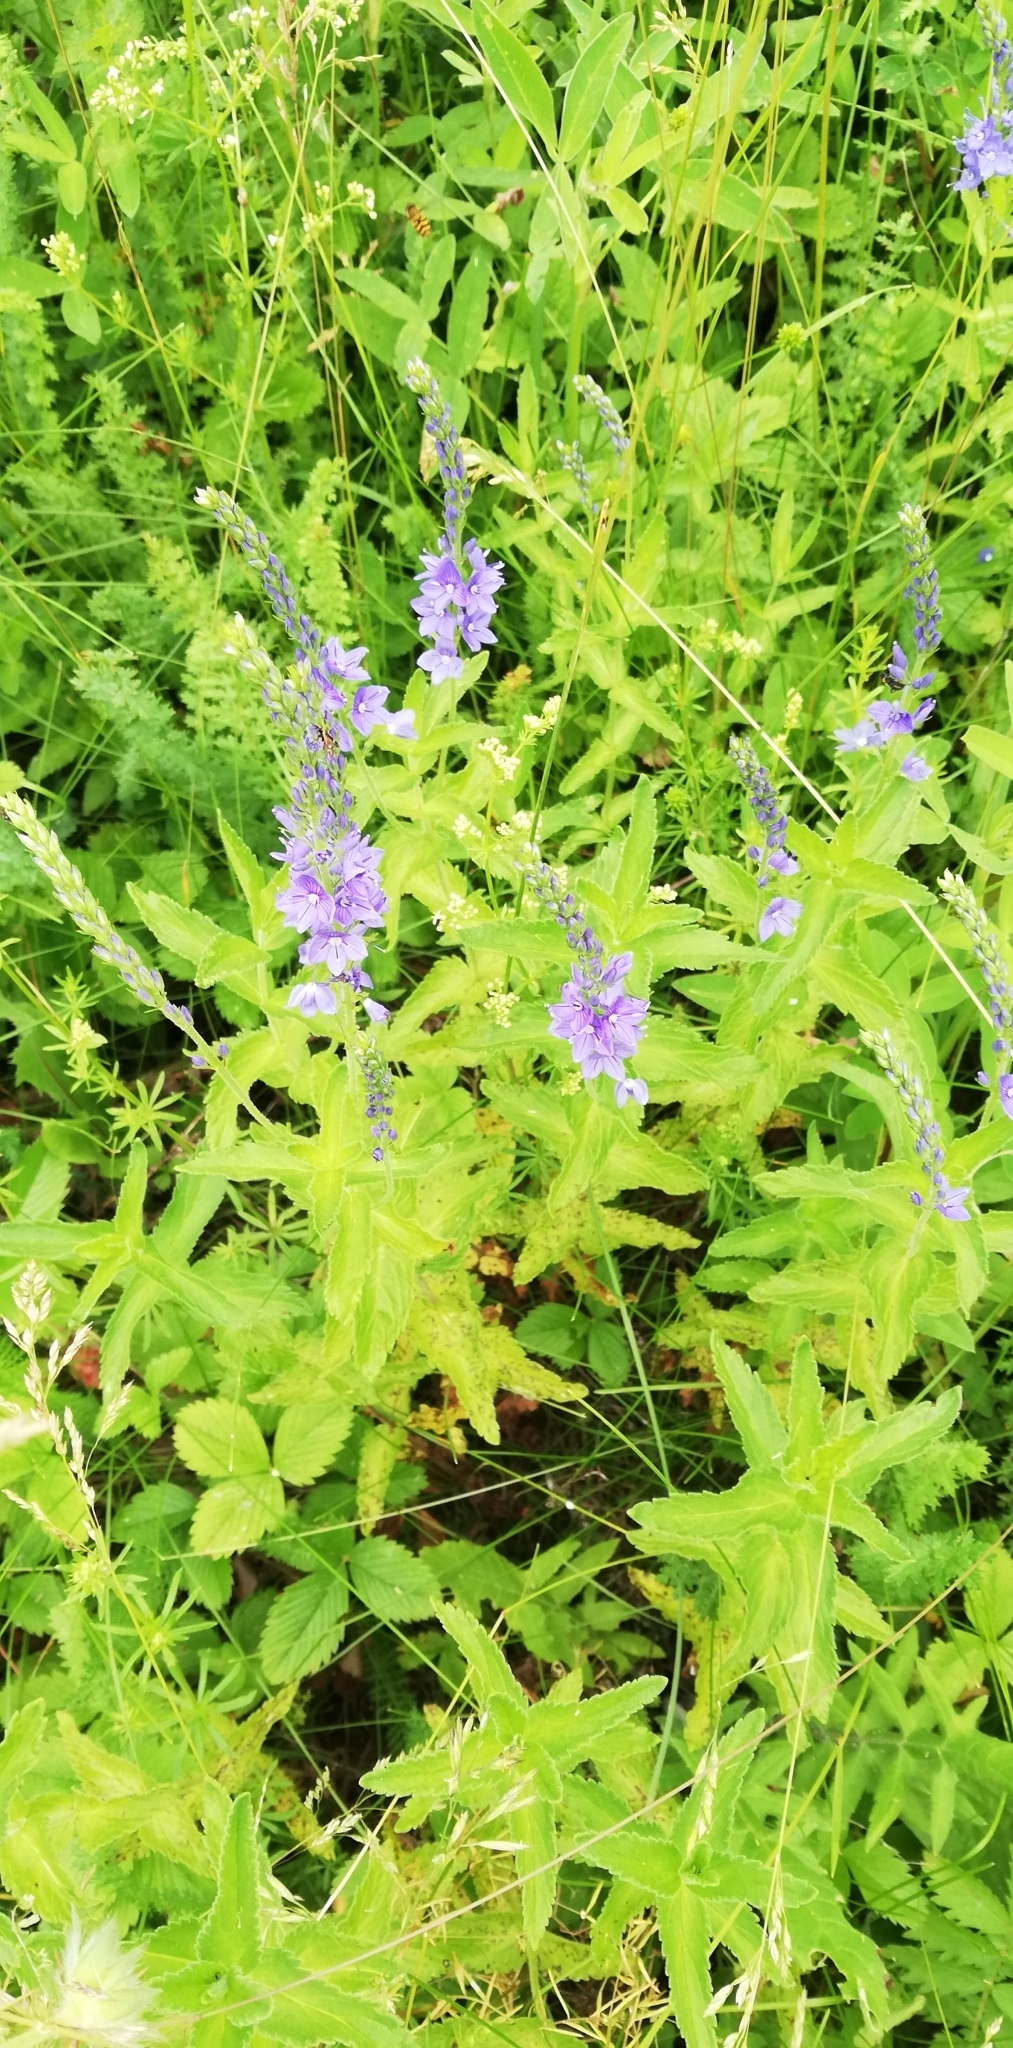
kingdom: Plantae
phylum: Tracheophyta
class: Magnoliopsida
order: Lamiales
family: Plantaginaceae
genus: Veronica
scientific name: Veronica teucrium
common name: Large speedwell
